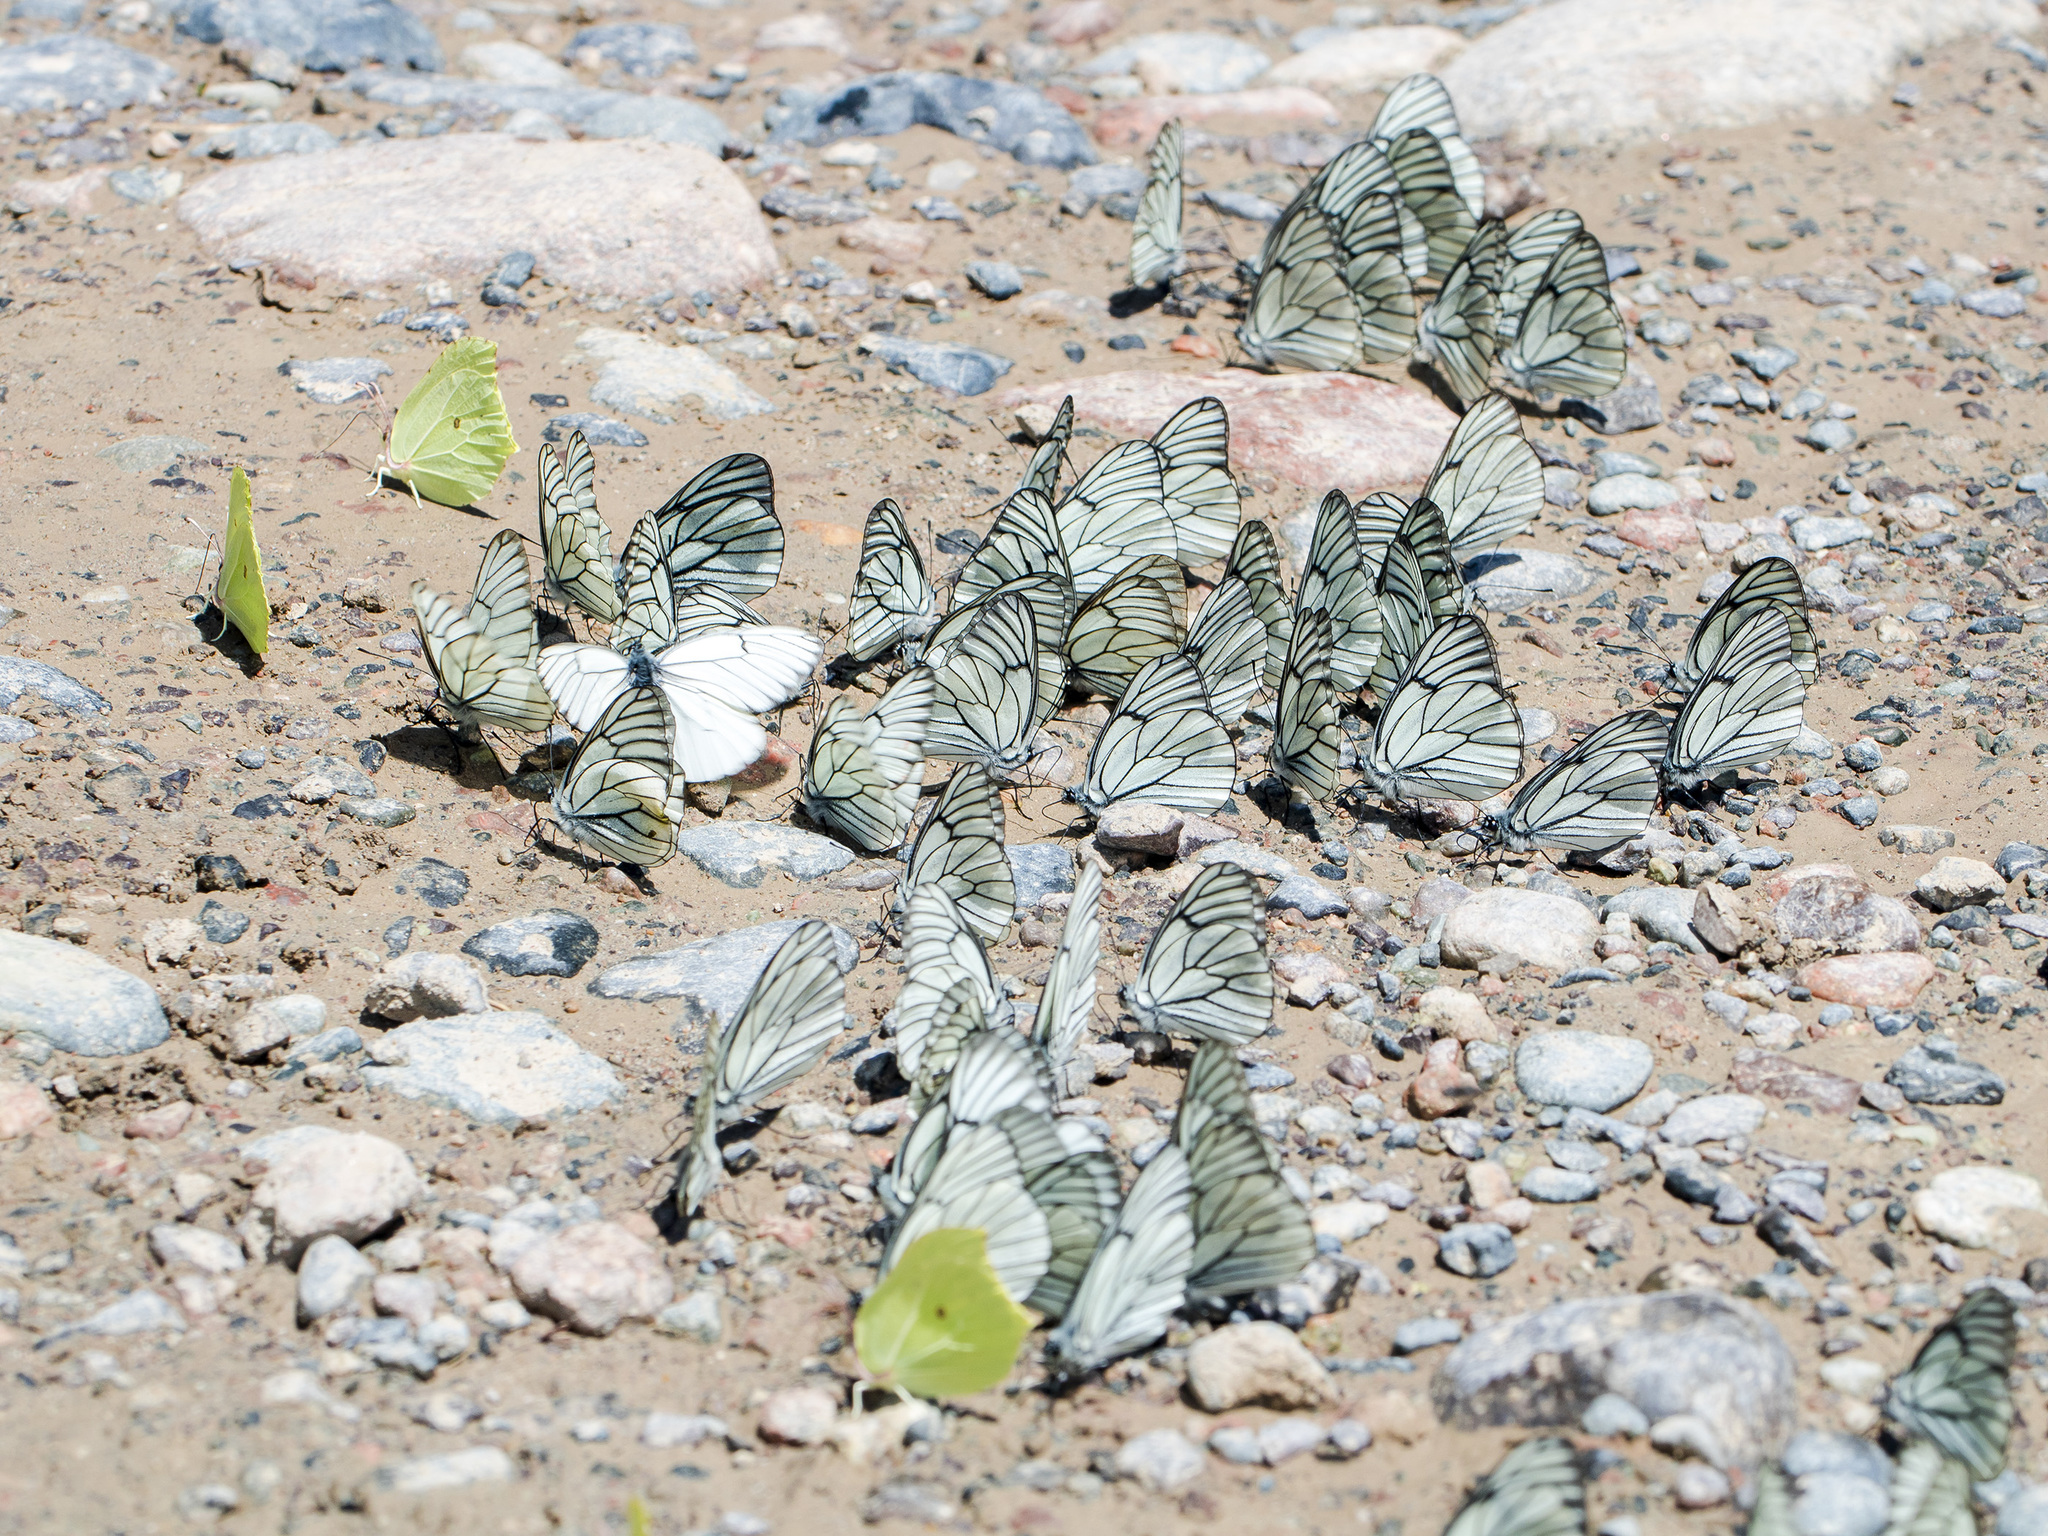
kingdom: Animalia
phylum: Arthropoda
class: Insecta
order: Lepidoptera
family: Pieridae
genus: Aporia
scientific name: Aporia crataegi
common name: Black-veined white
